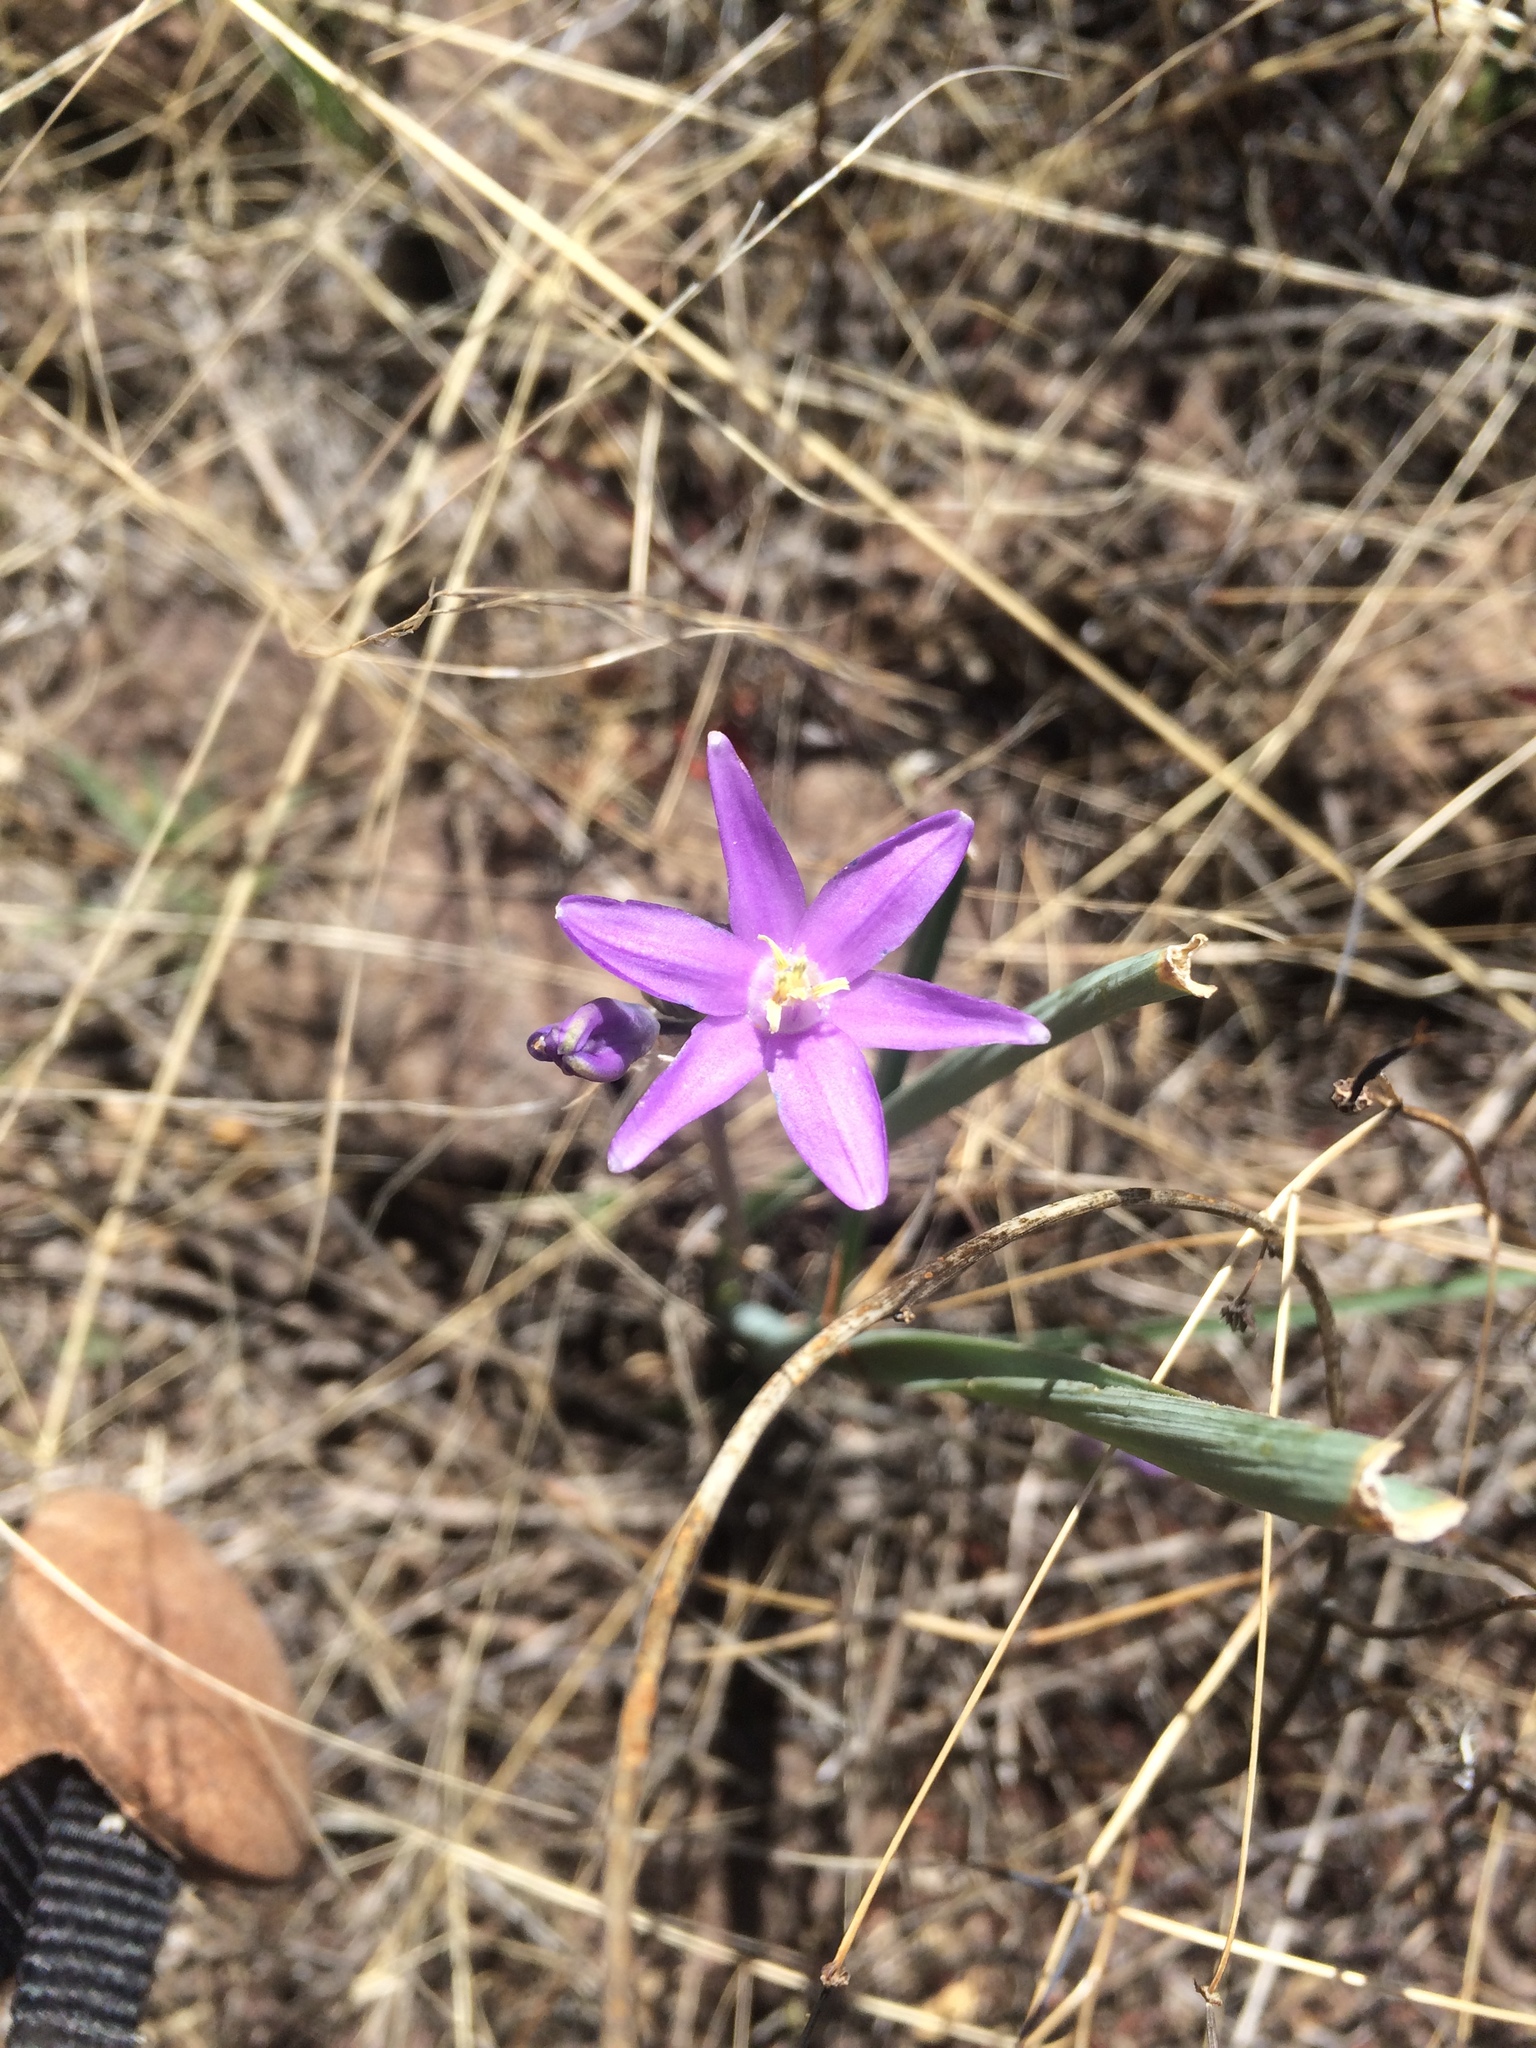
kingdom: Plantae
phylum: Tracheophyta
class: Liliopsida
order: Asparagales
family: Asparagaceae
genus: Dipterostemon
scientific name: Dipterostemon capitatus
